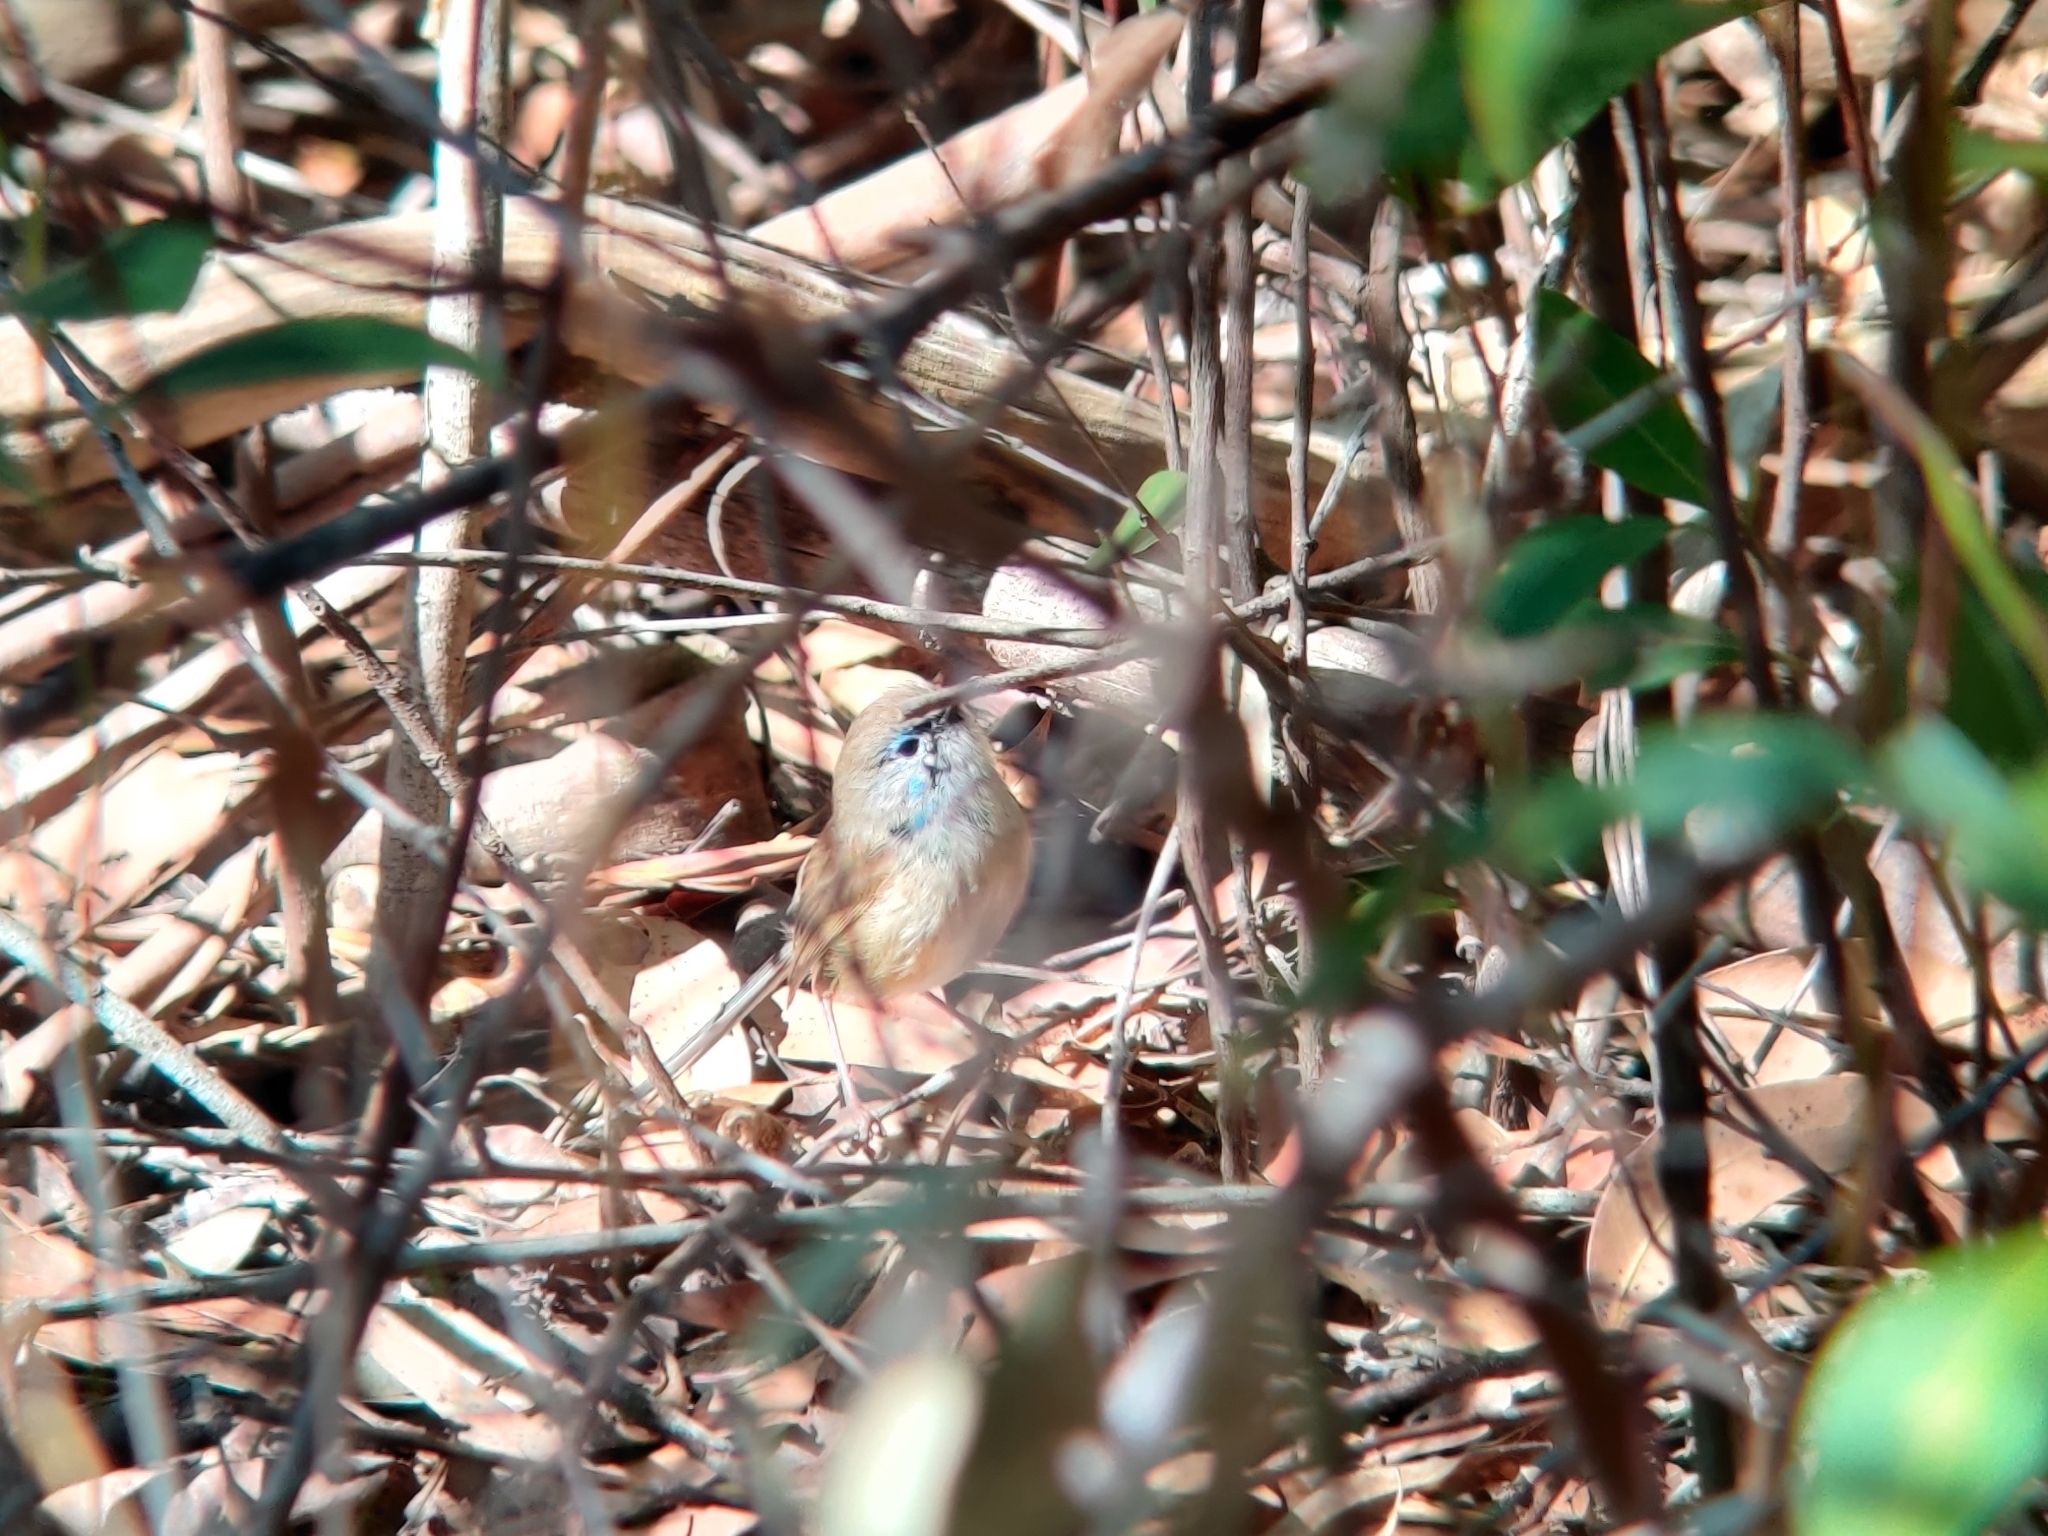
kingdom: Animalia
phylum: Chordata
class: Aves
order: Passeriformes
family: Maluridae
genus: Malurus
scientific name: Malurus lamberti
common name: Variegated fairywren
